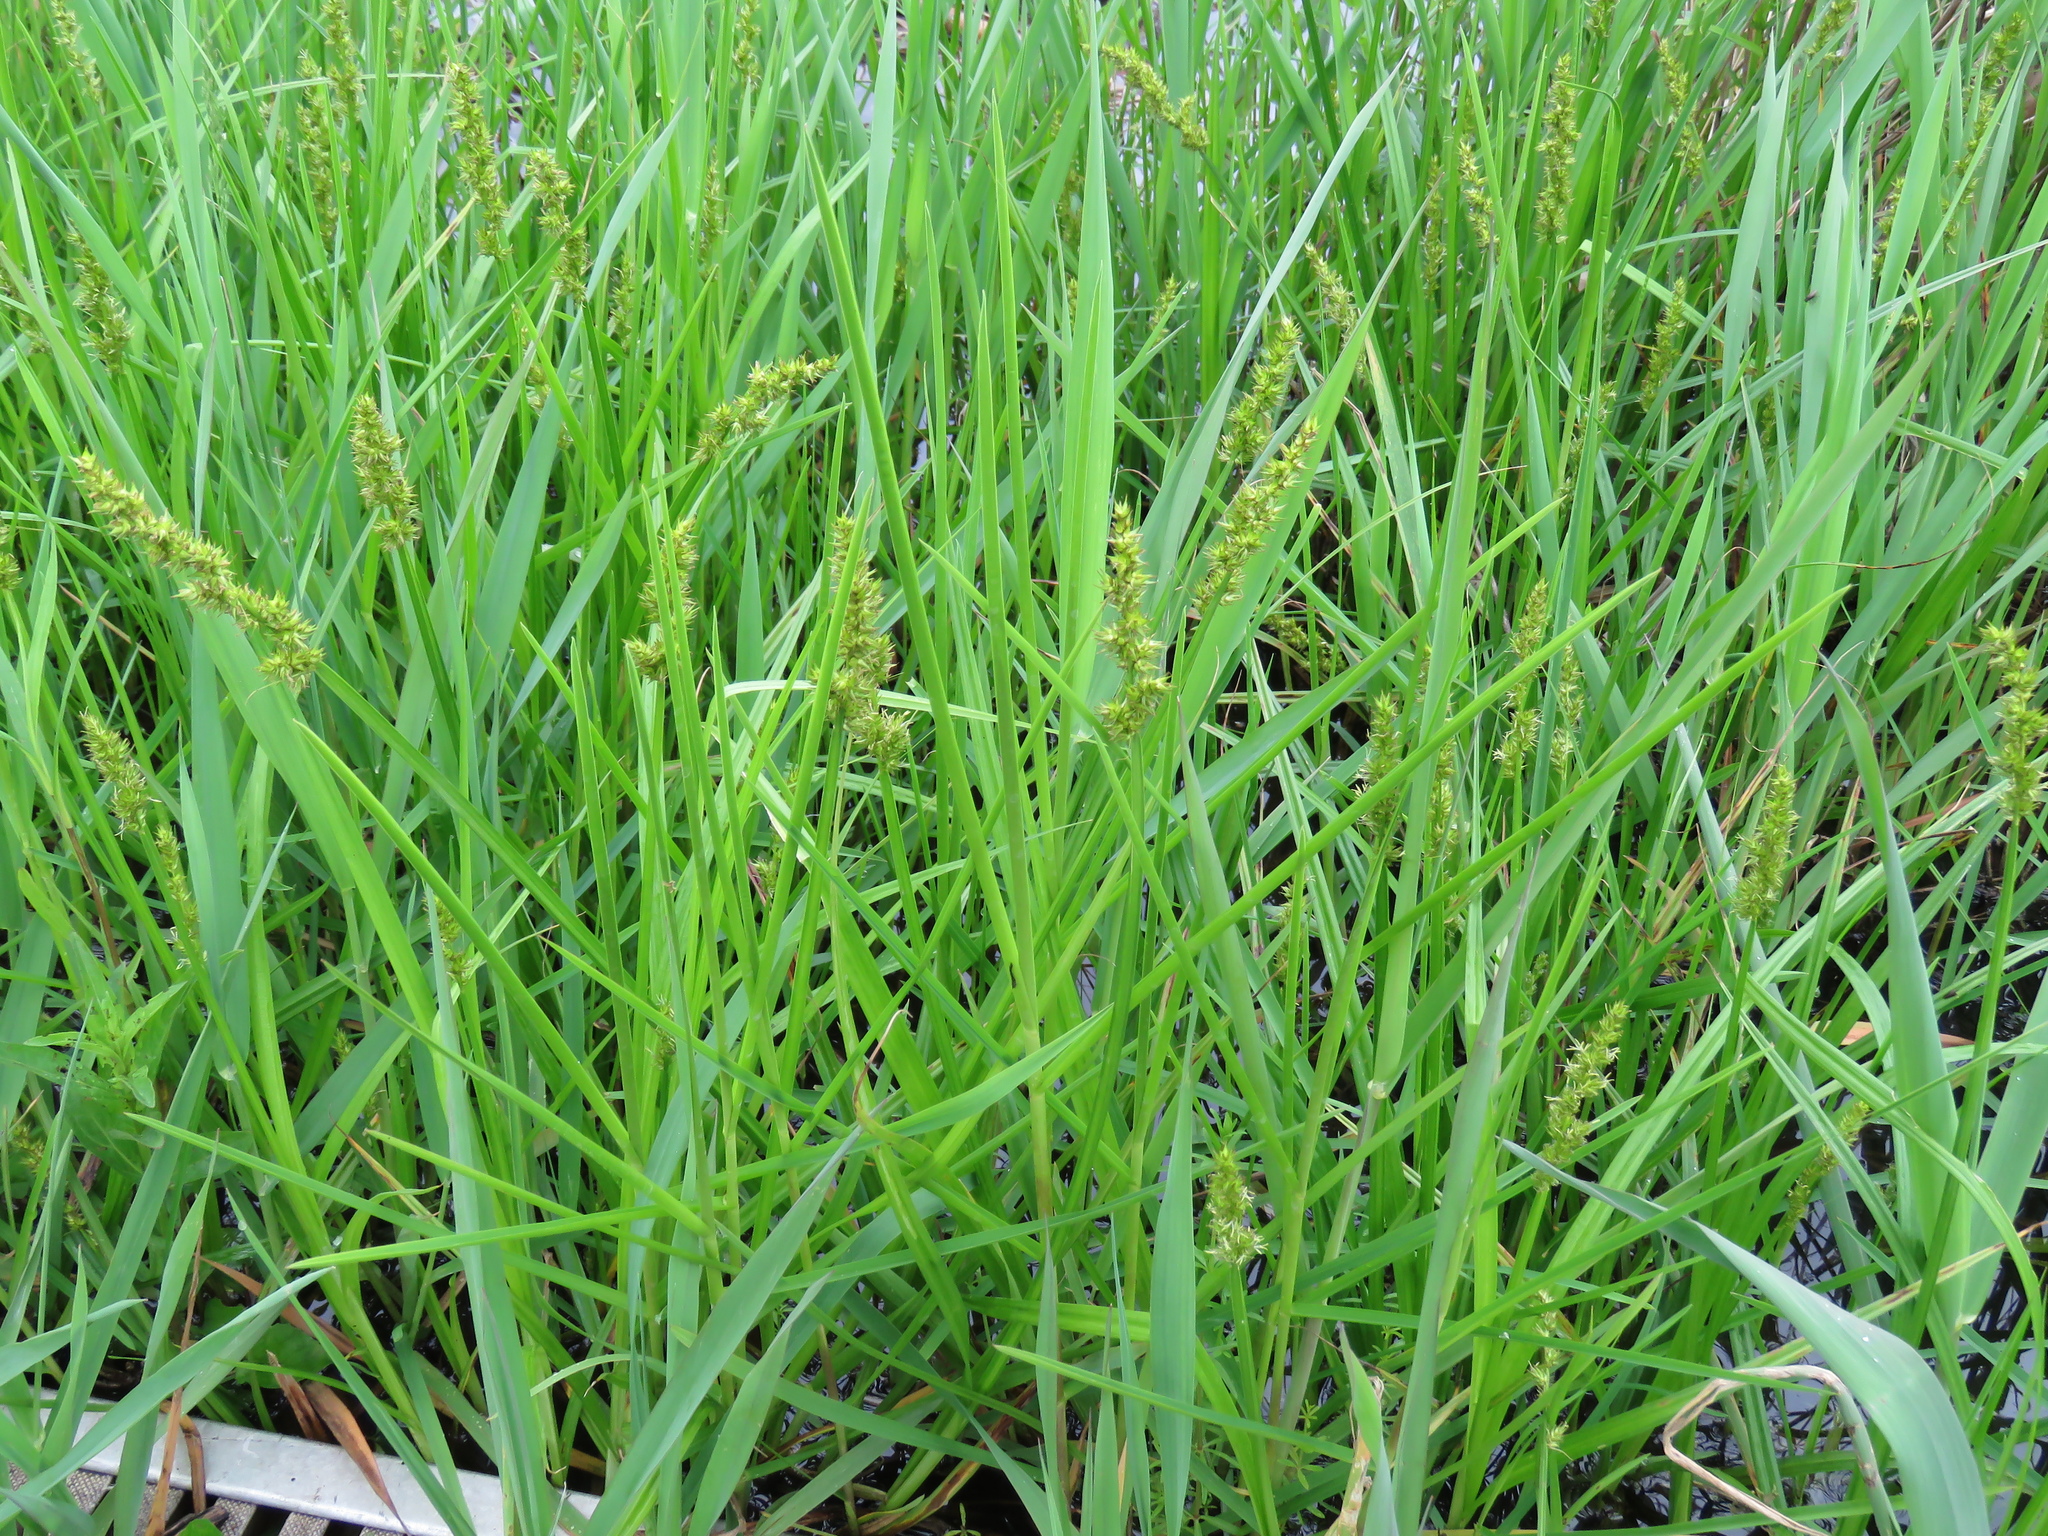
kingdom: Plantae
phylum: Tracheophyta
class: Liliopsida
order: Poales
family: Cyperaceae
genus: Carex
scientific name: Carex stipata
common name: Awl-fruited sedge
